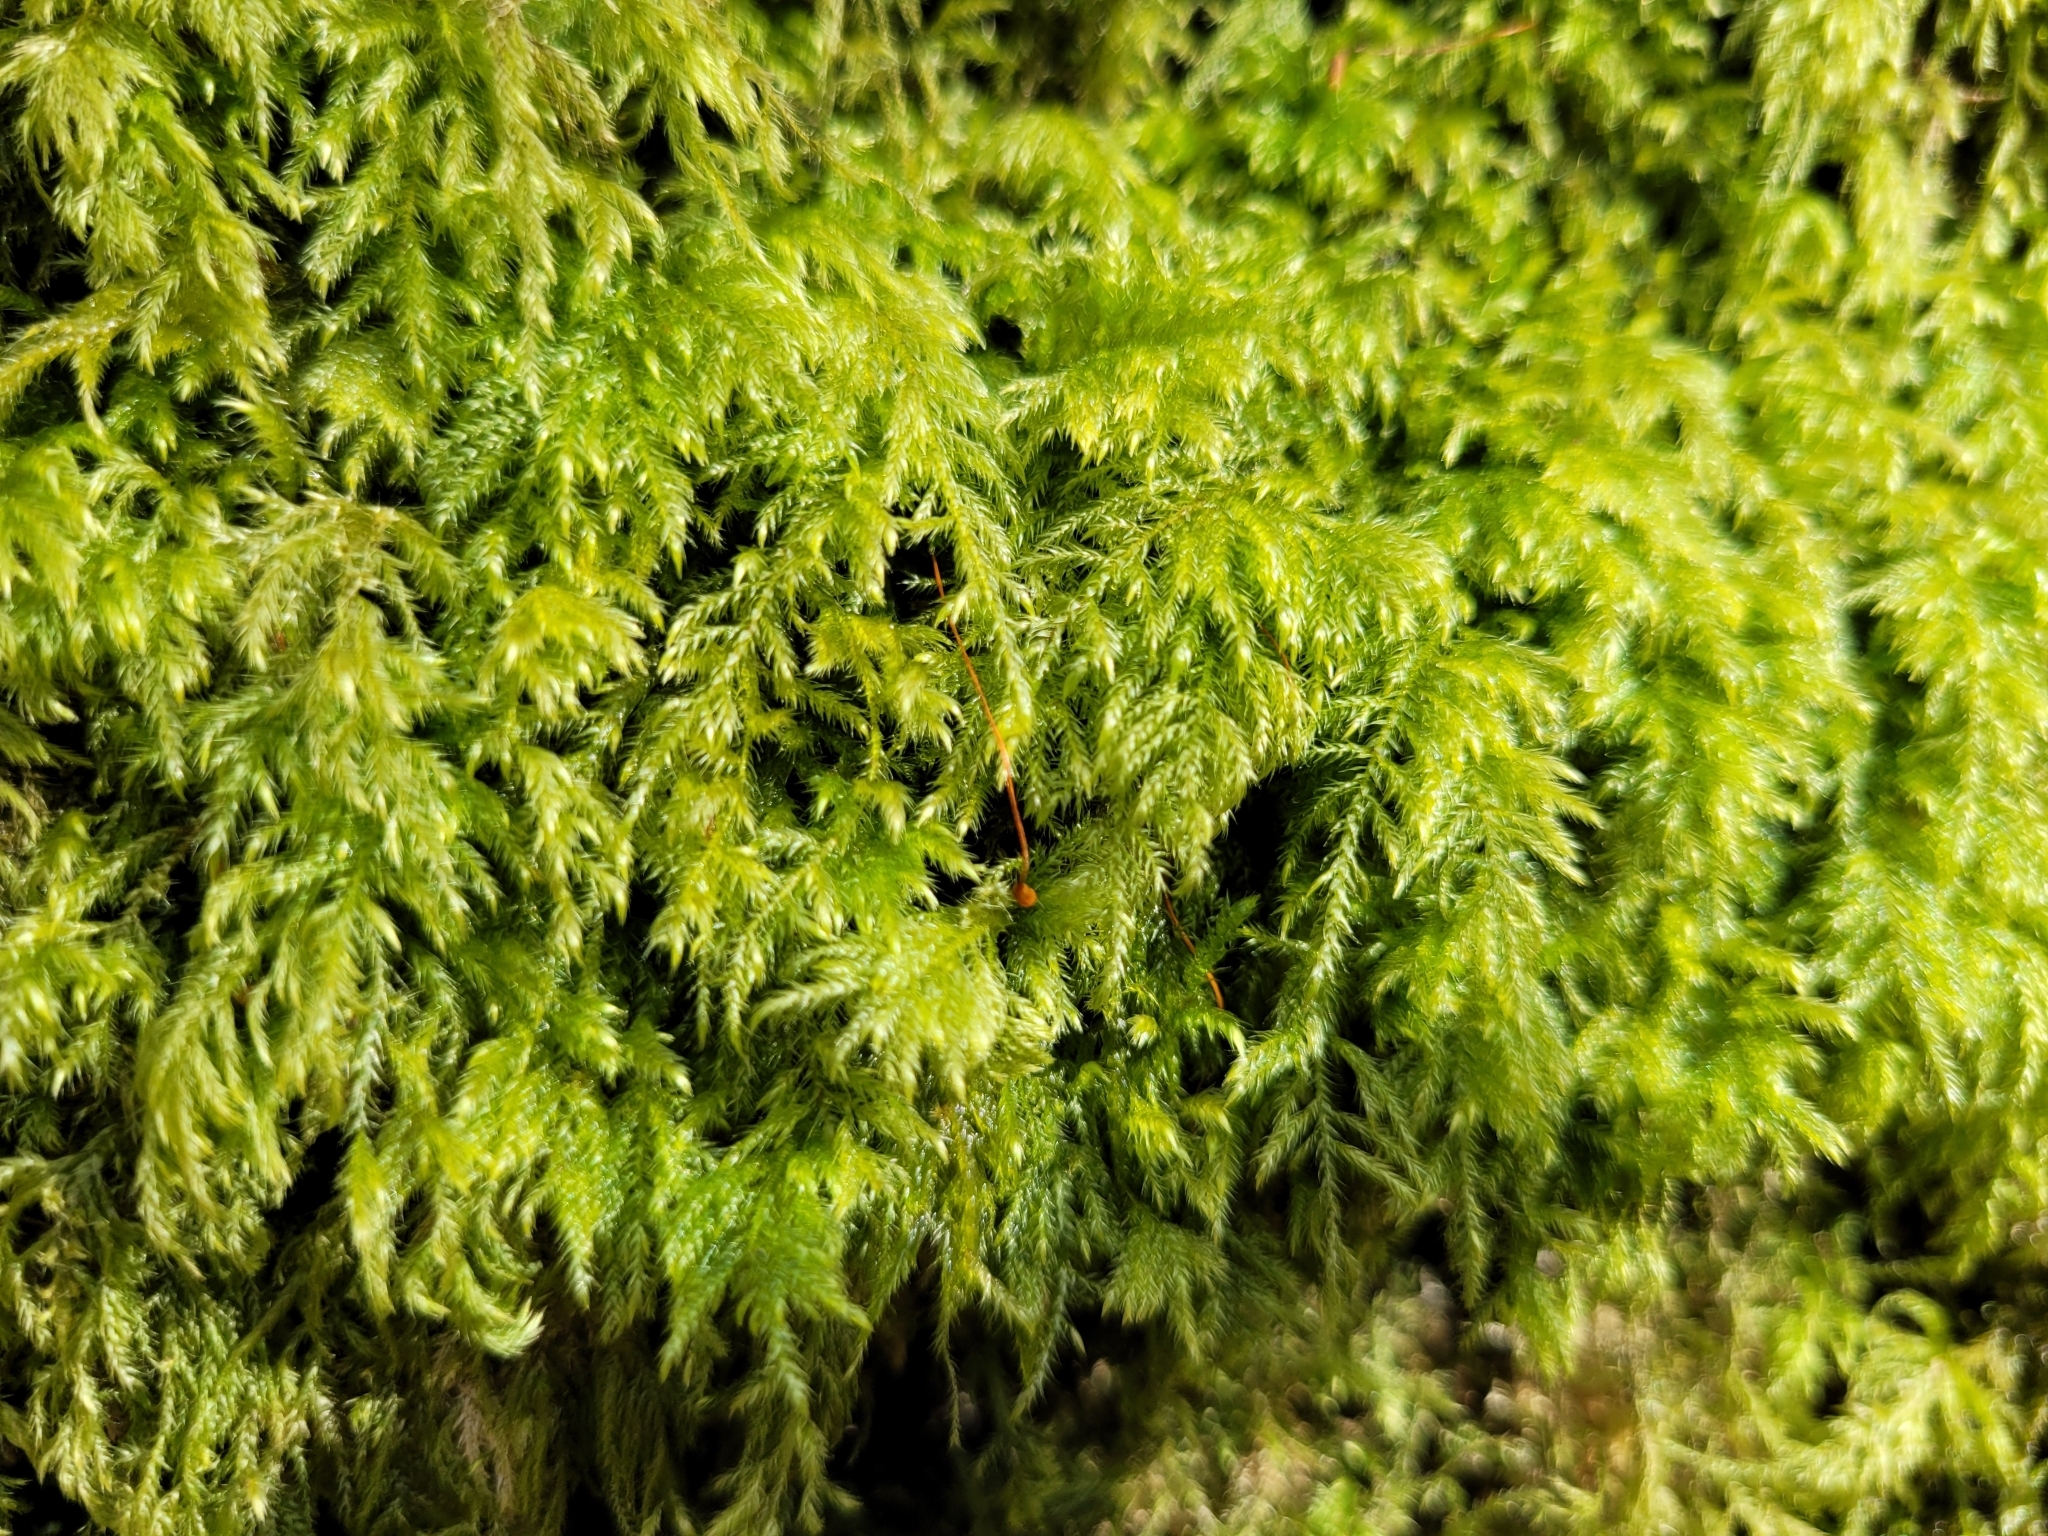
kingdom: Plantae
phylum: Bryophyta
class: Bryopsida
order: Hypnales
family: Lembophyllaceae
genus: Pseudisothecium
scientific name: Pseudisothecium myosuroides
